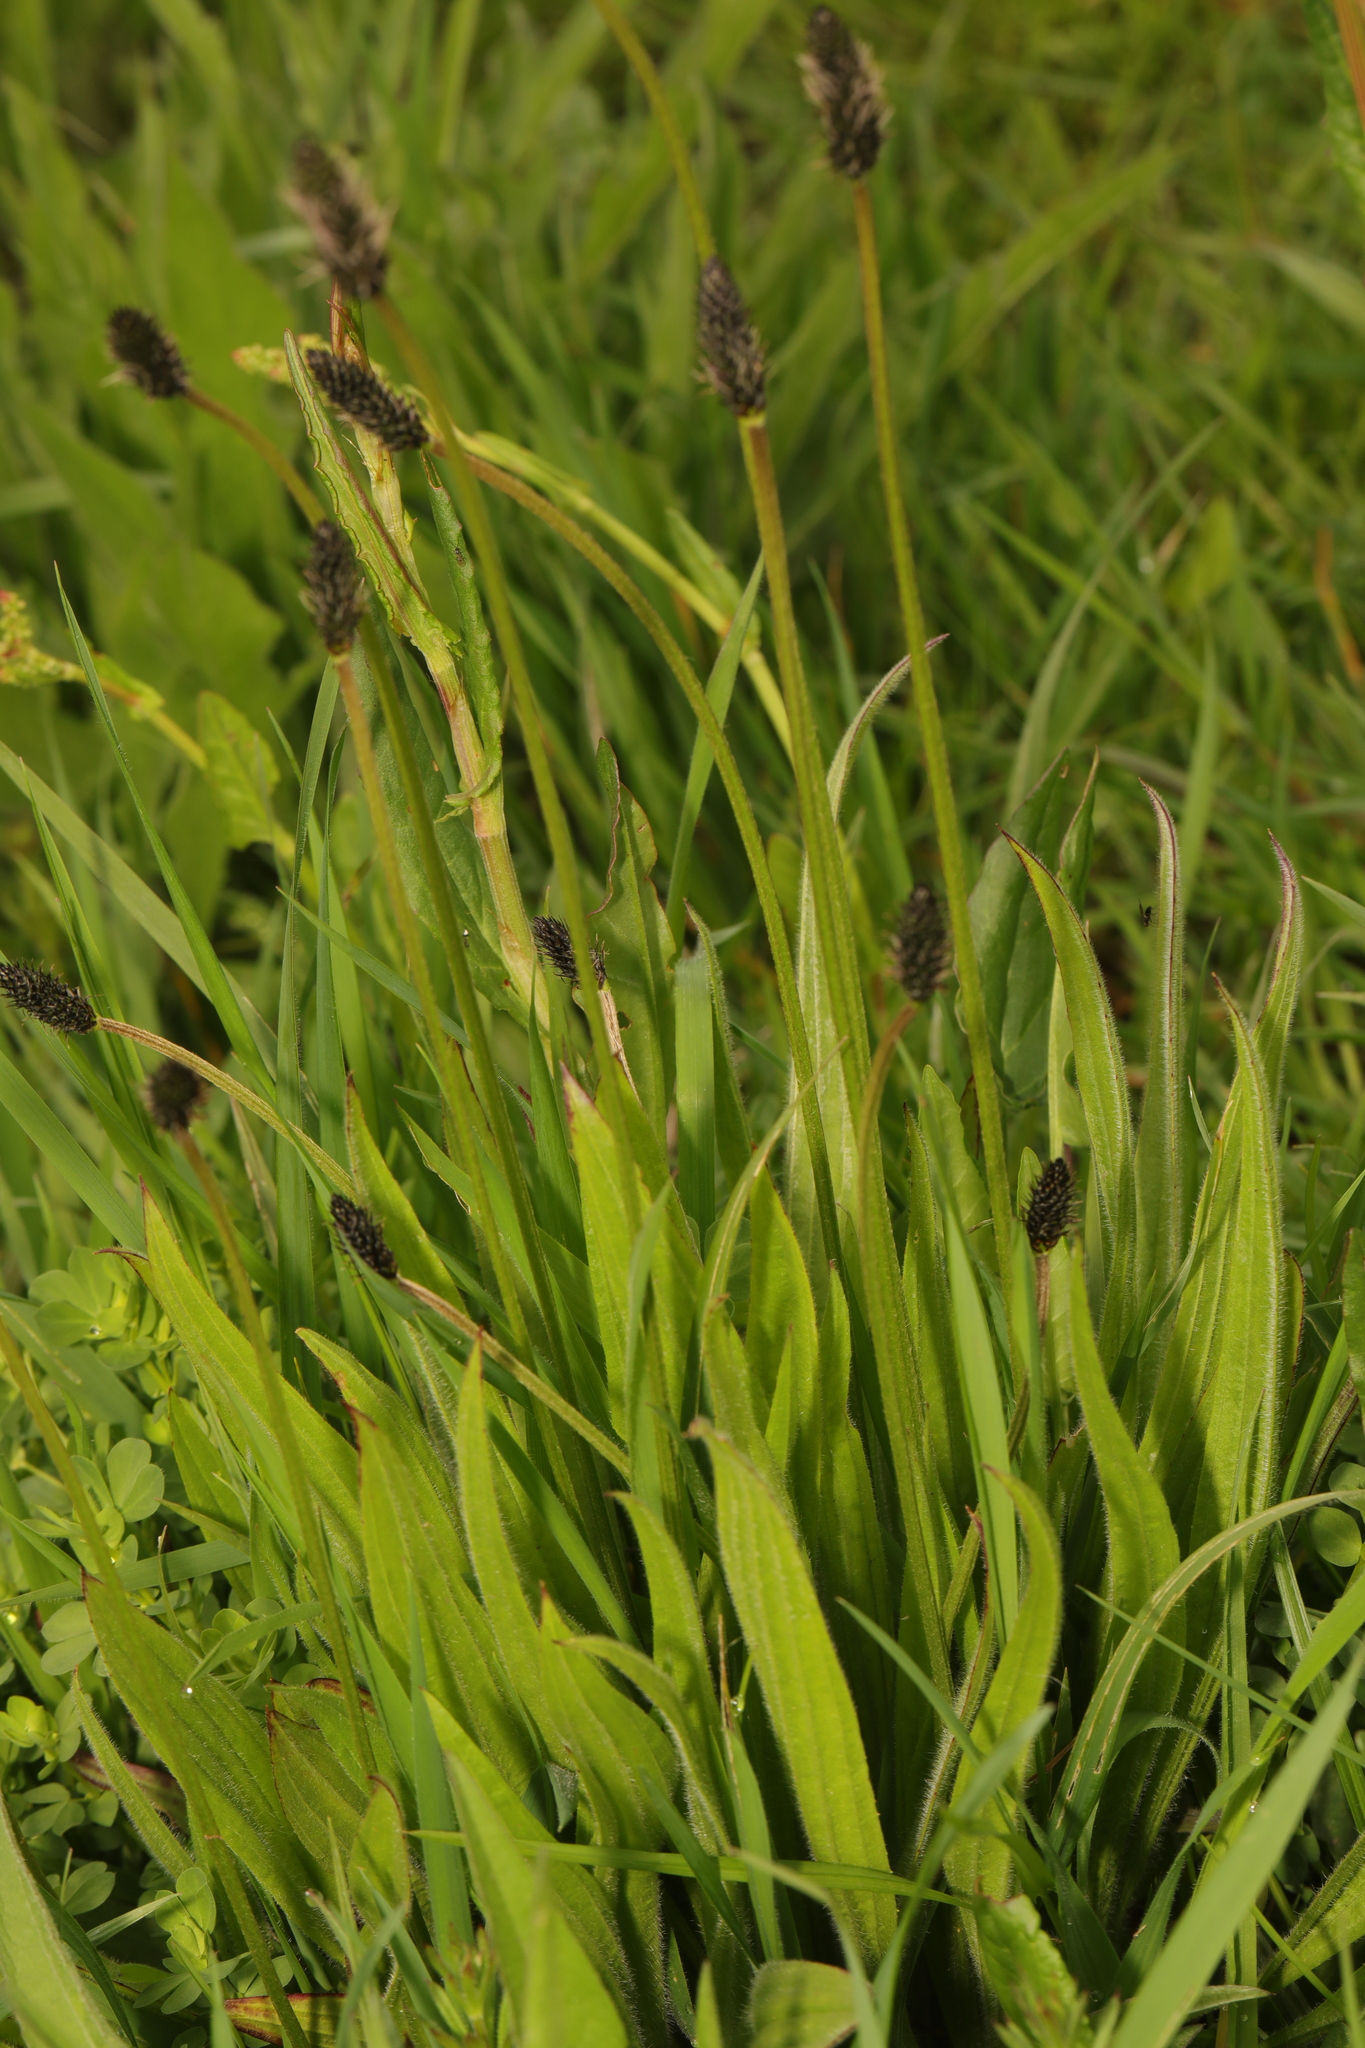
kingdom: Plantae
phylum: Tracheophyta
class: Magnoliopsida
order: Lamiales
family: Plantaginaceae
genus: Plantago
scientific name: Plantago lanceolata
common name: Ribwort plantain
